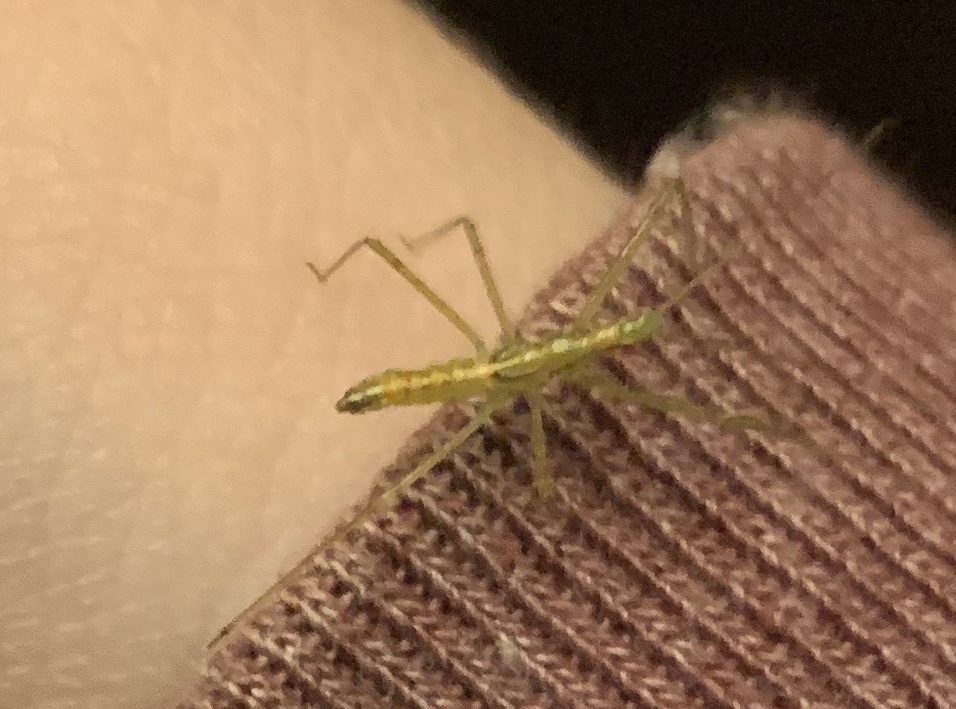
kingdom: Animalia
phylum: Arthropoda
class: Insecta
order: Hemiptera
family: Reduviidae
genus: Zelus
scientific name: Zelus luridus
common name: Pale green assassin bug
